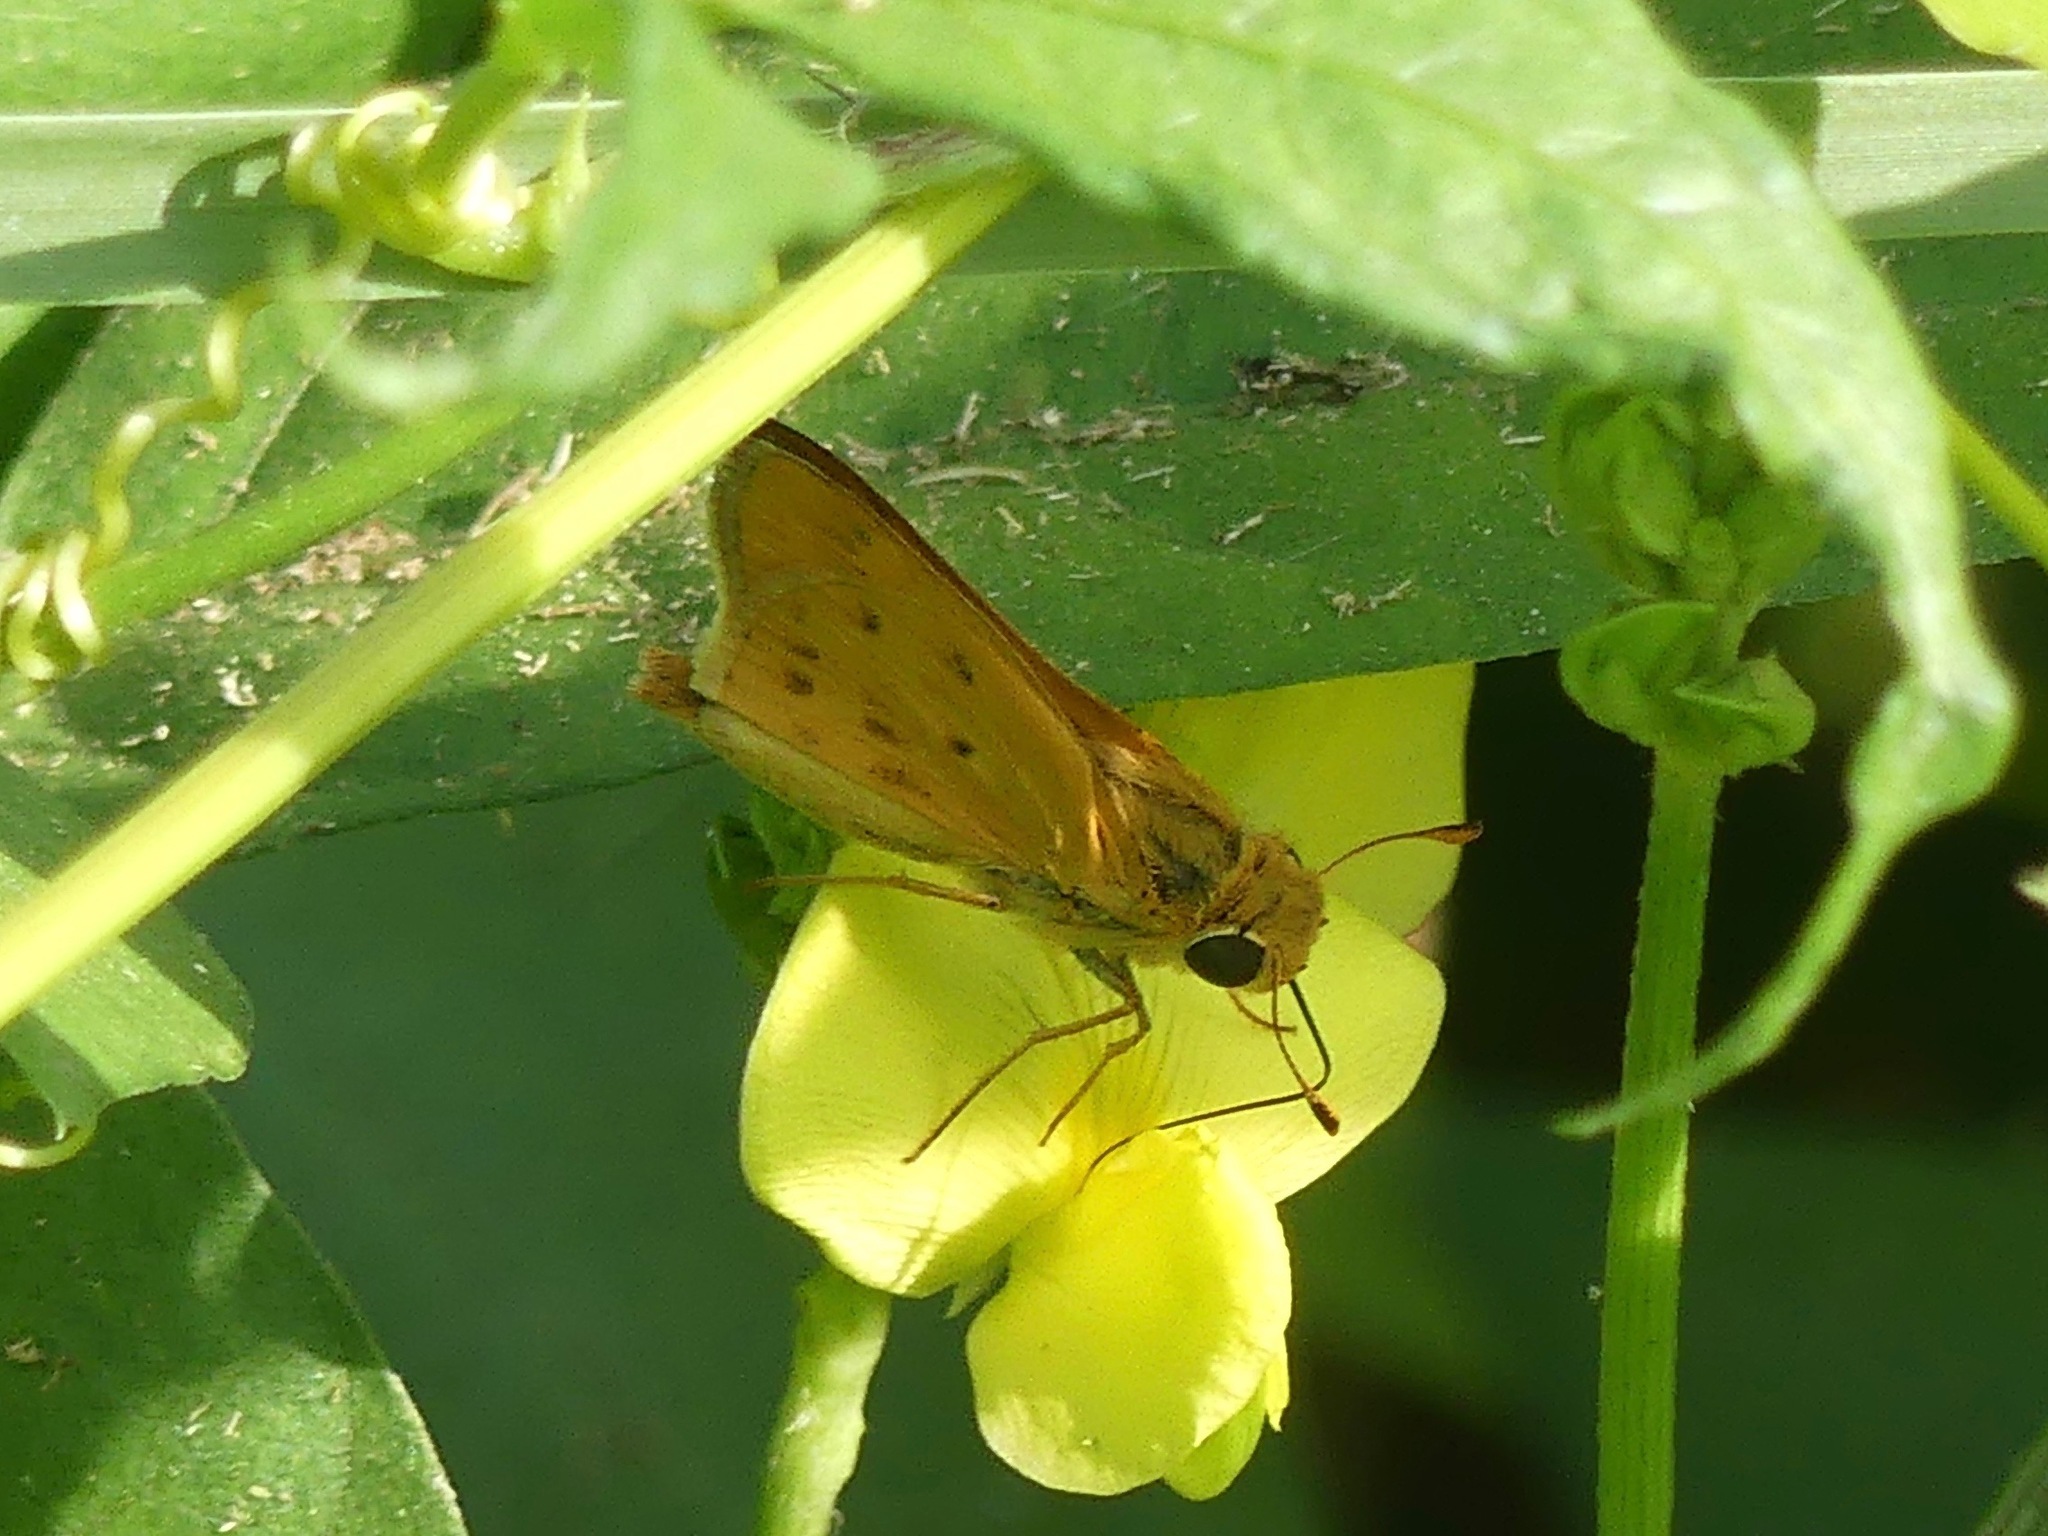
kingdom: Animalia
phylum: Arthropoda
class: Insecta
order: Lepidoptera
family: Hesperiidae
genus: Hylephila
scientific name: Hylephila phyleus
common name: Fiery skipper
